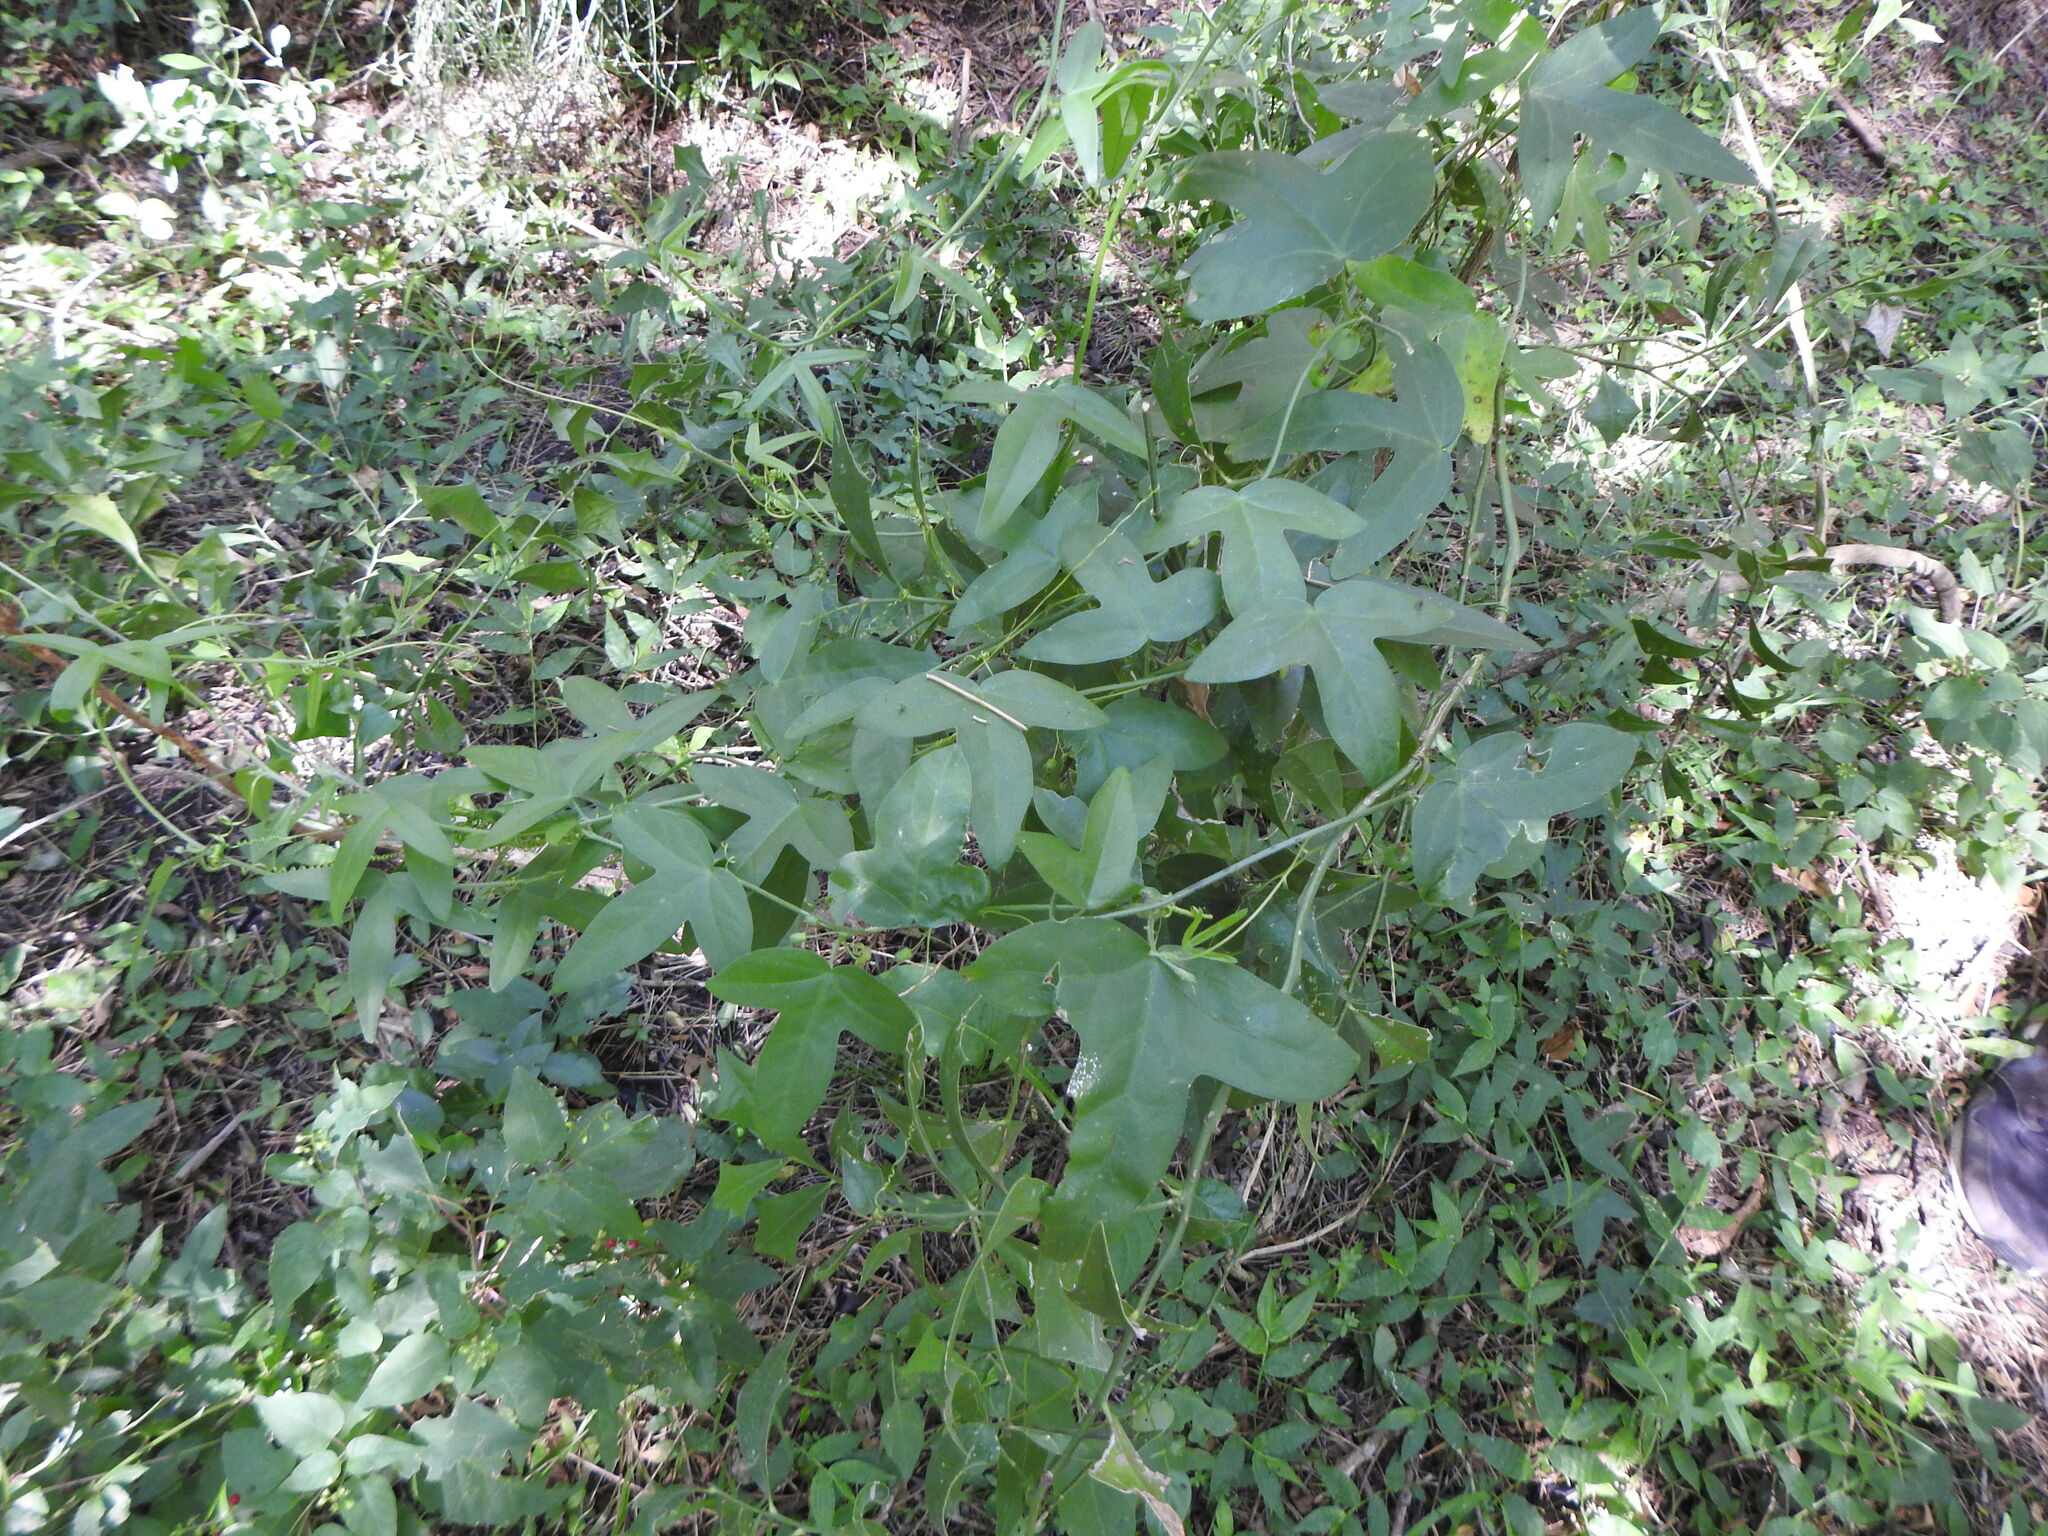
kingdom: Plantae
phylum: Tracheophyta
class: Magnoliopsida
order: Malpighiales
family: Passifloraceae
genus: Passiflora
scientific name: Passiflora suberosa
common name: Wild passionfruit
